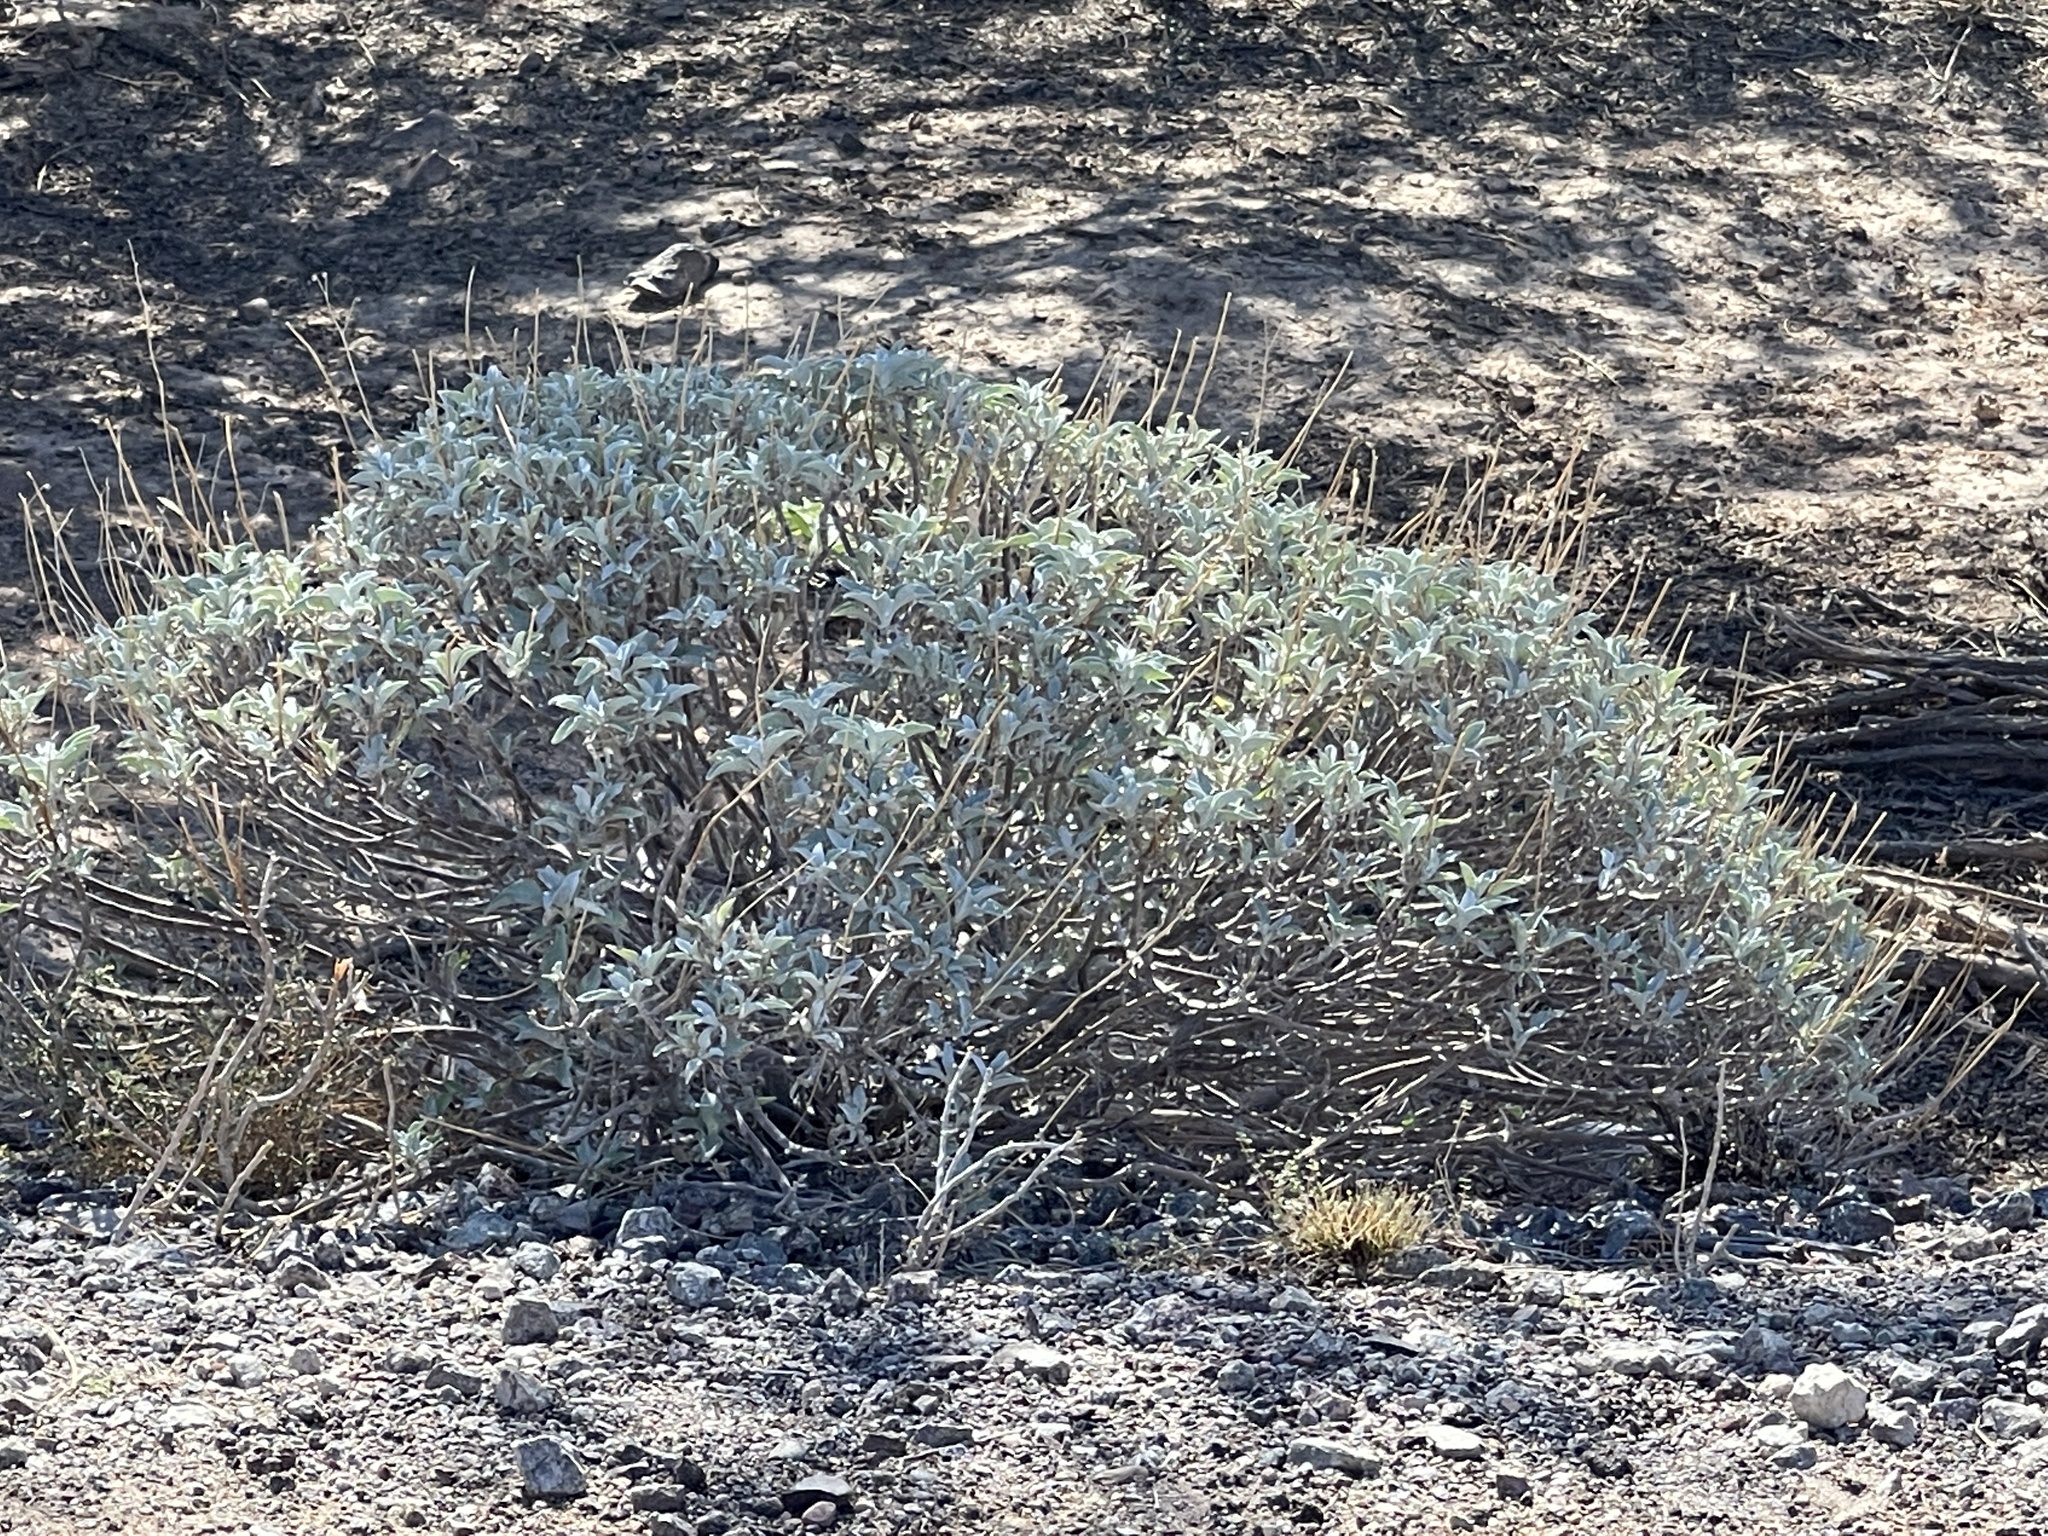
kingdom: Plantae
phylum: Tracheophyta
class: Magnoliopsida
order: Asterales
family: Asteraceae
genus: Encelia
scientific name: Encelia farinosa
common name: Brittlebush
